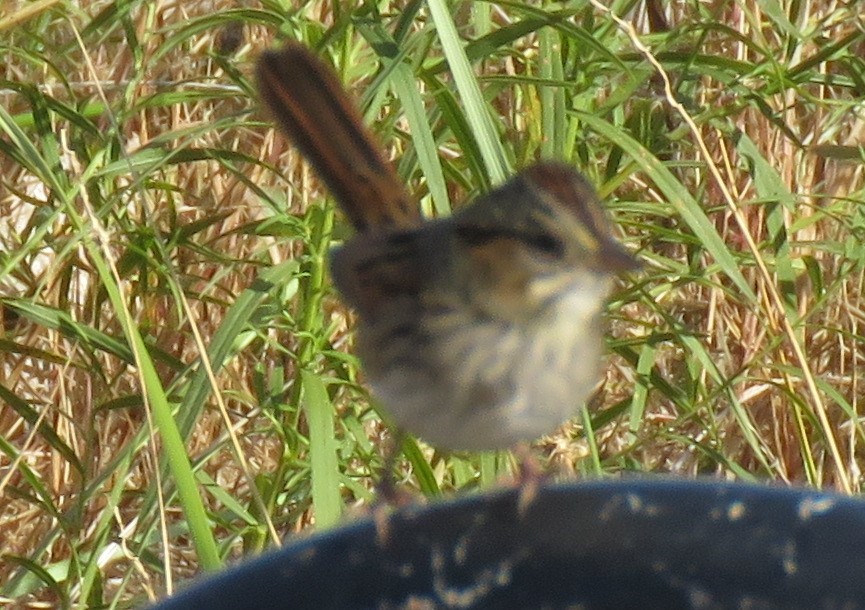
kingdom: Animalia
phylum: Chordata
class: Aves
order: Passeriformes
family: Passerellidae
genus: Melospiza
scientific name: Melospiza georgiana
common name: Swamp sparrow
